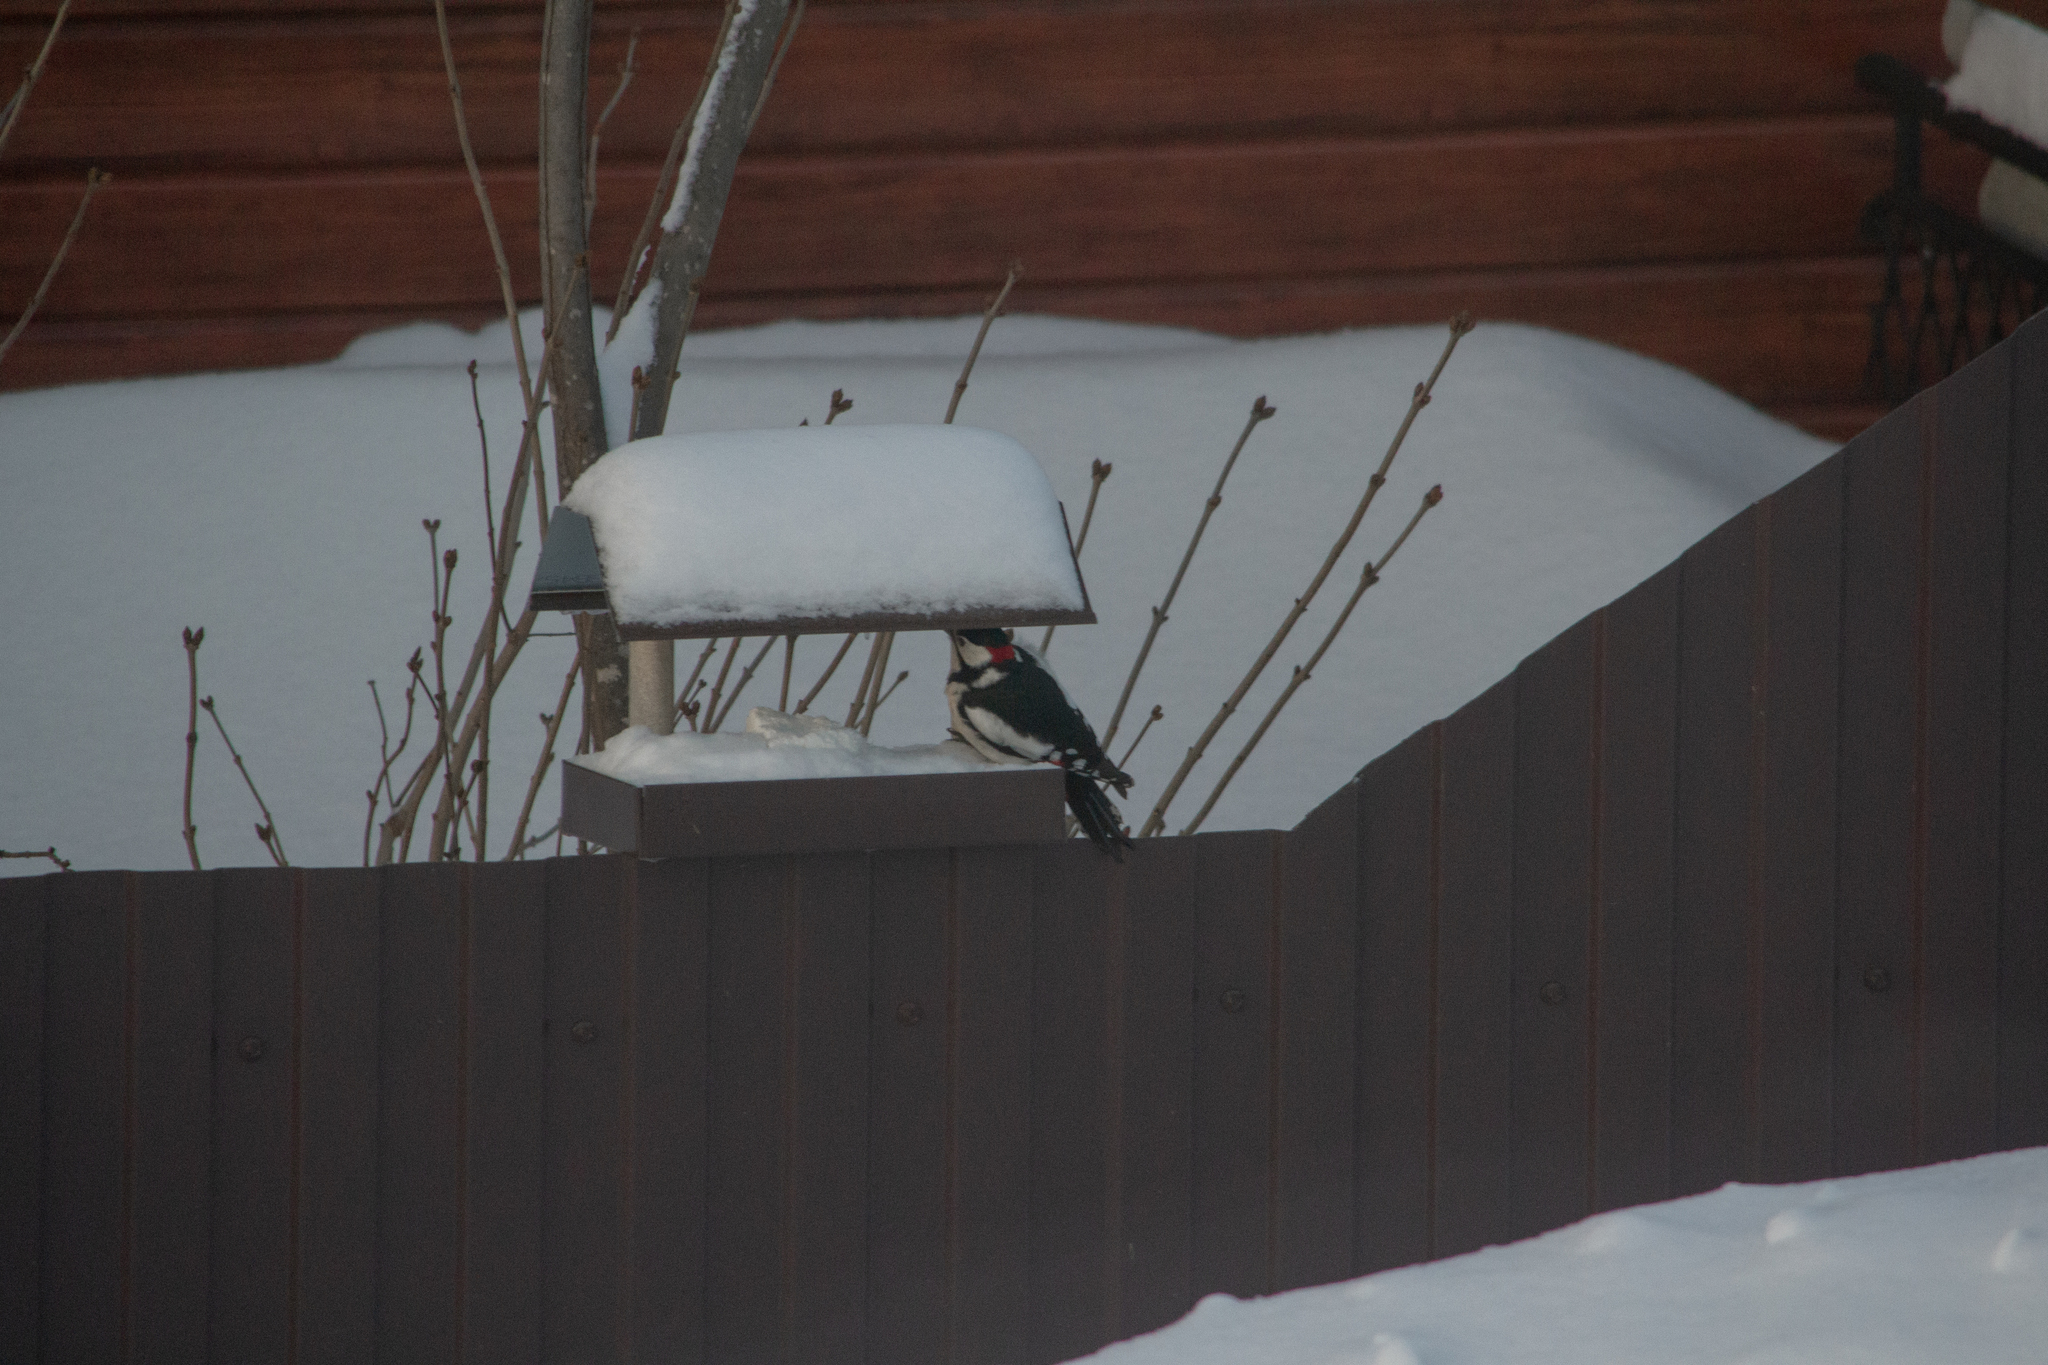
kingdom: Animalia
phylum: Chordata
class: Aves
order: Piciformes
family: Picidae
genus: Dendrocopos
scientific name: Dendrocopos major
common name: Great spotted woodpecker
